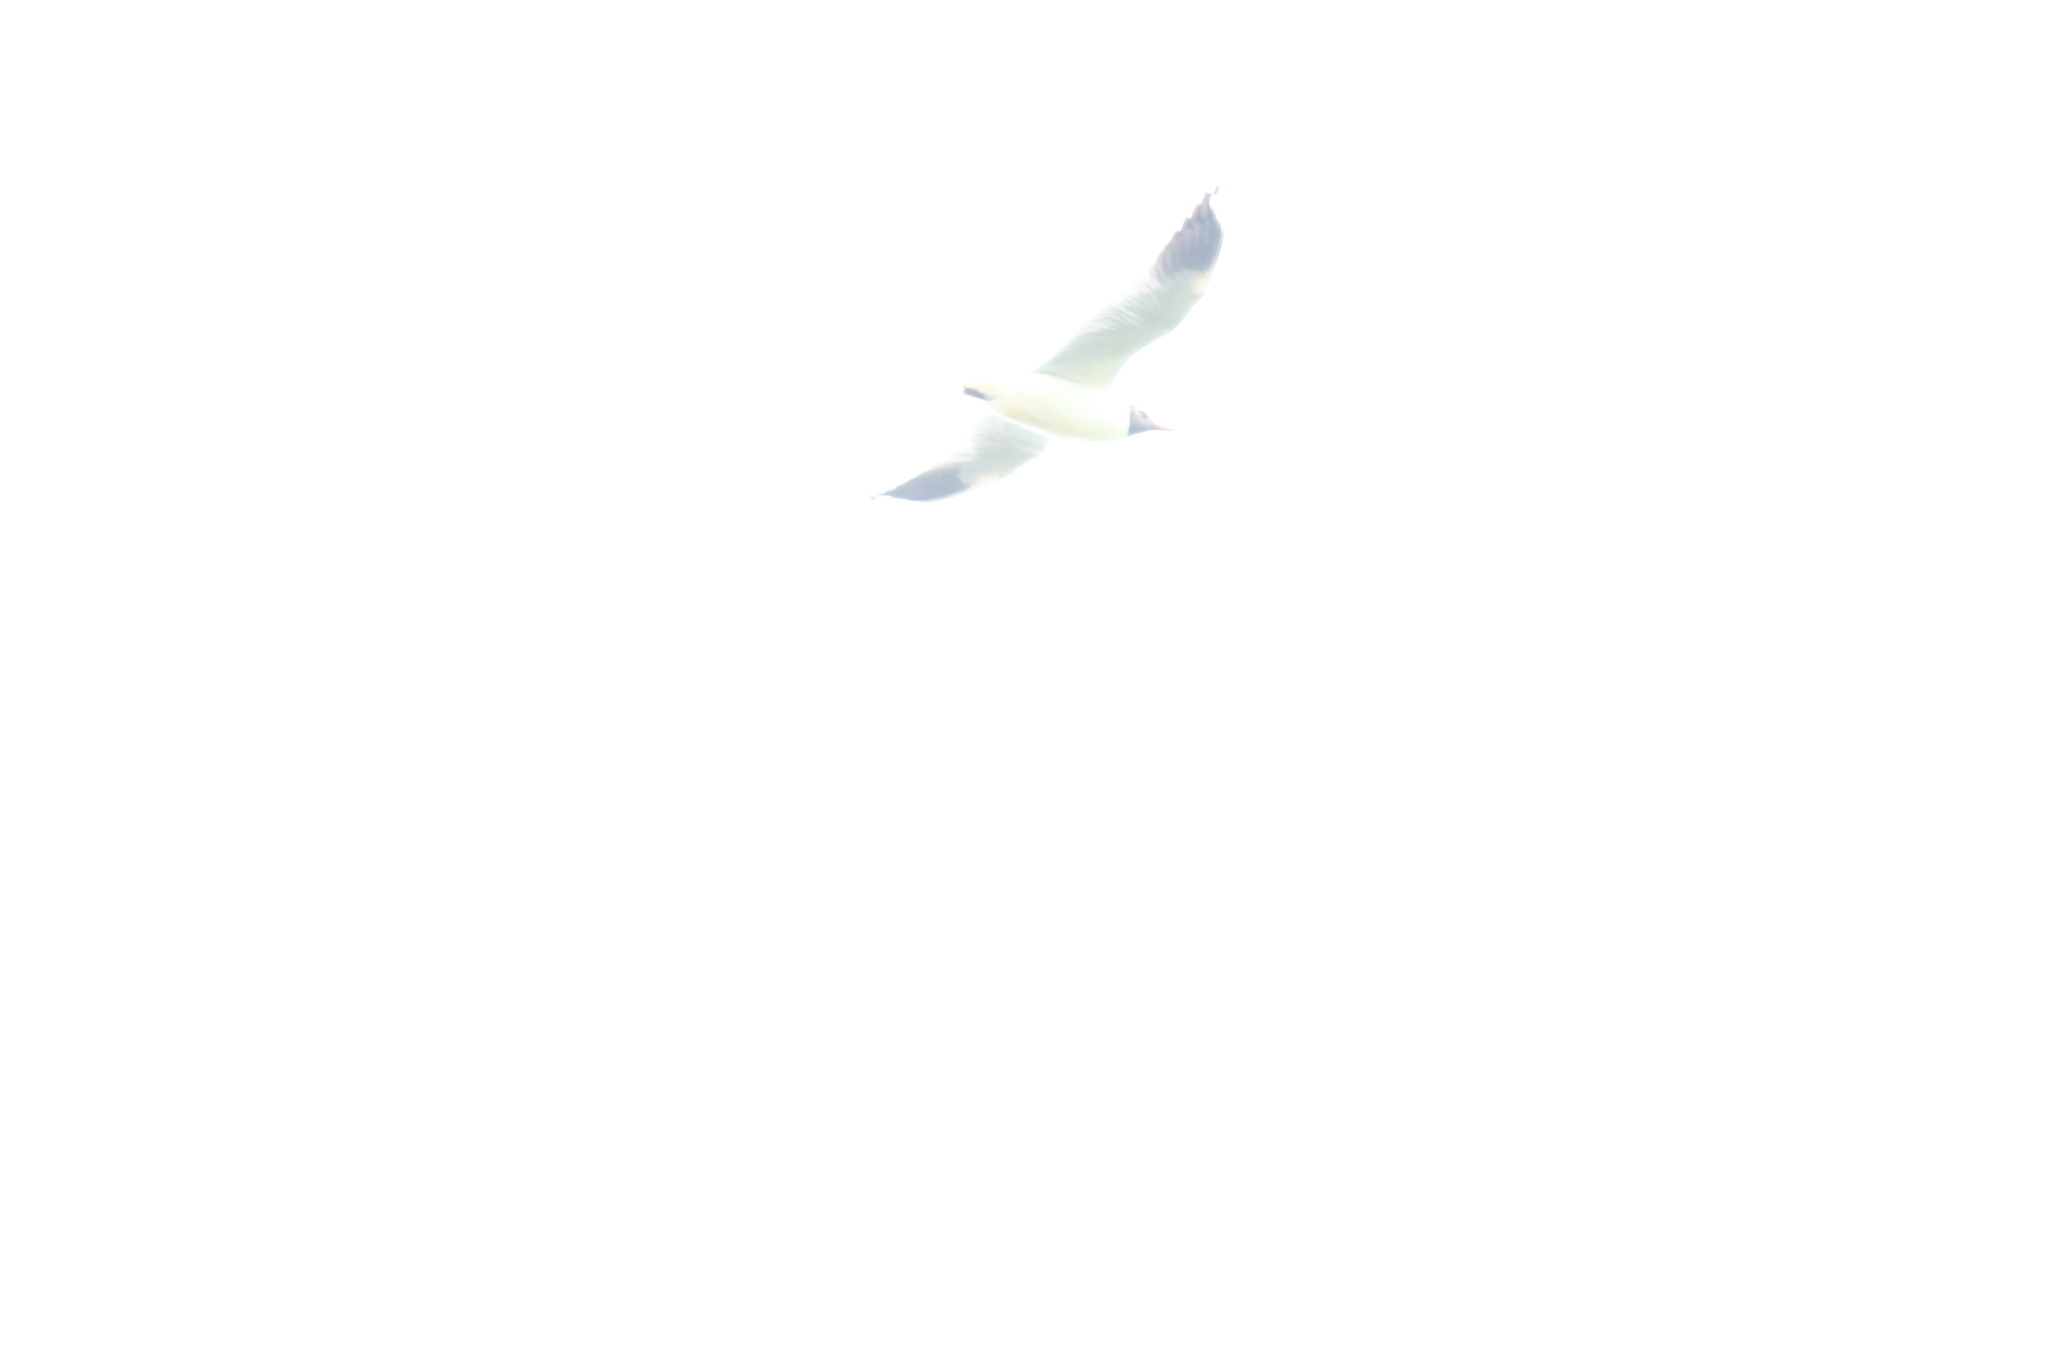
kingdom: Animalia
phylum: Chordata
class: Aves
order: Charadriiformes
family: Laridae
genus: Chroicocephalus
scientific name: Chroicocephalus maculipennis
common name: Brown-hooded gull
